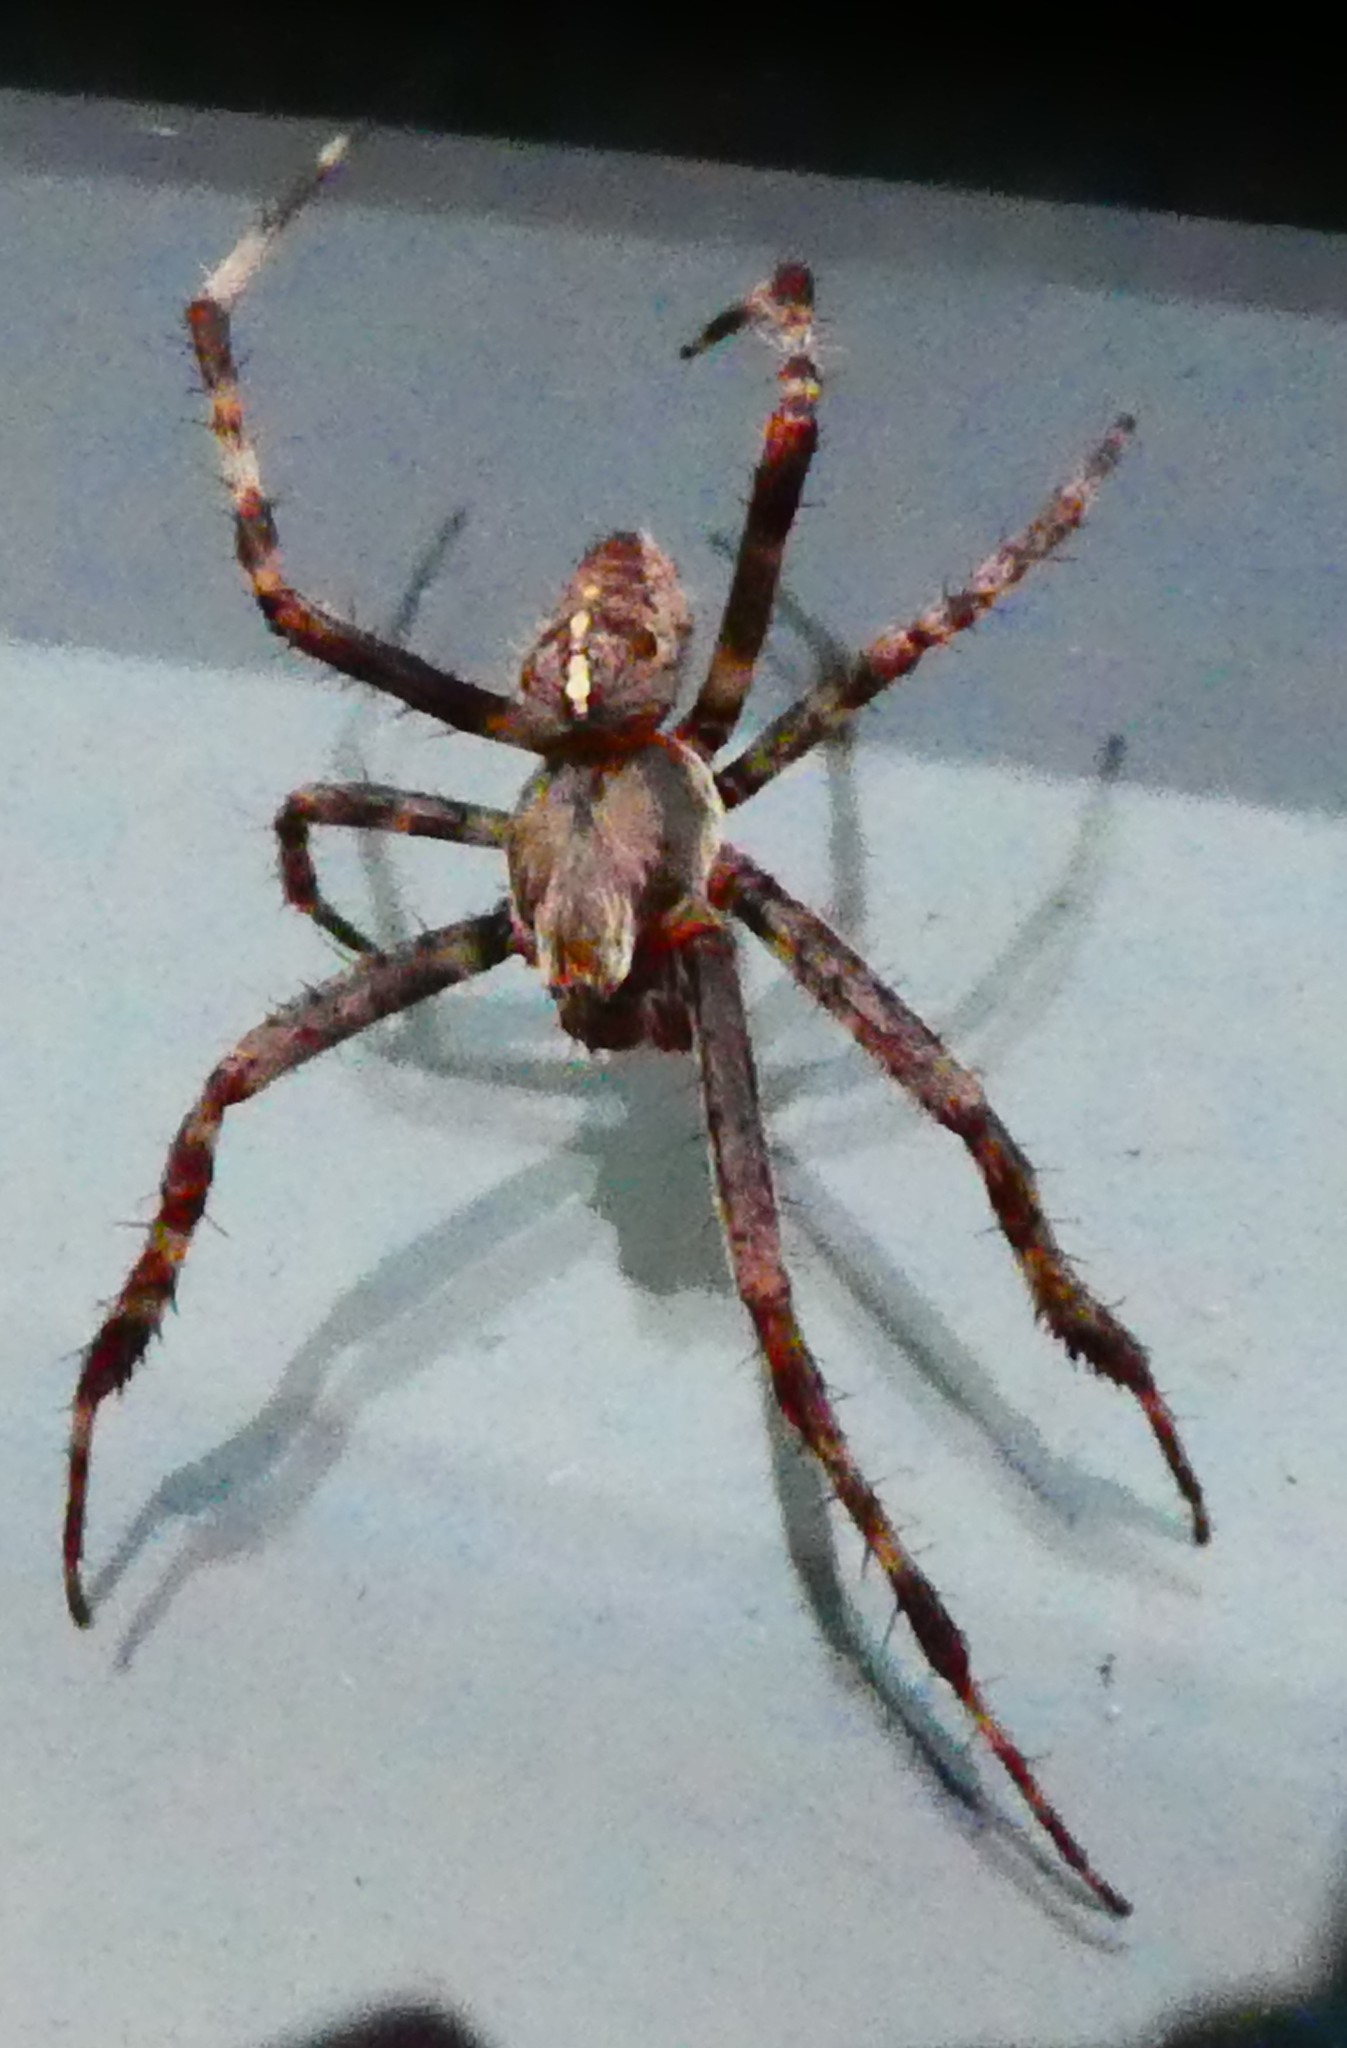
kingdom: Animalia
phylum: Arthropoda
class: Arachnida
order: Araneae
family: Araneidae
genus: Araneus
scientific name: Araneus diadematus
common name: Cross orbweaver
